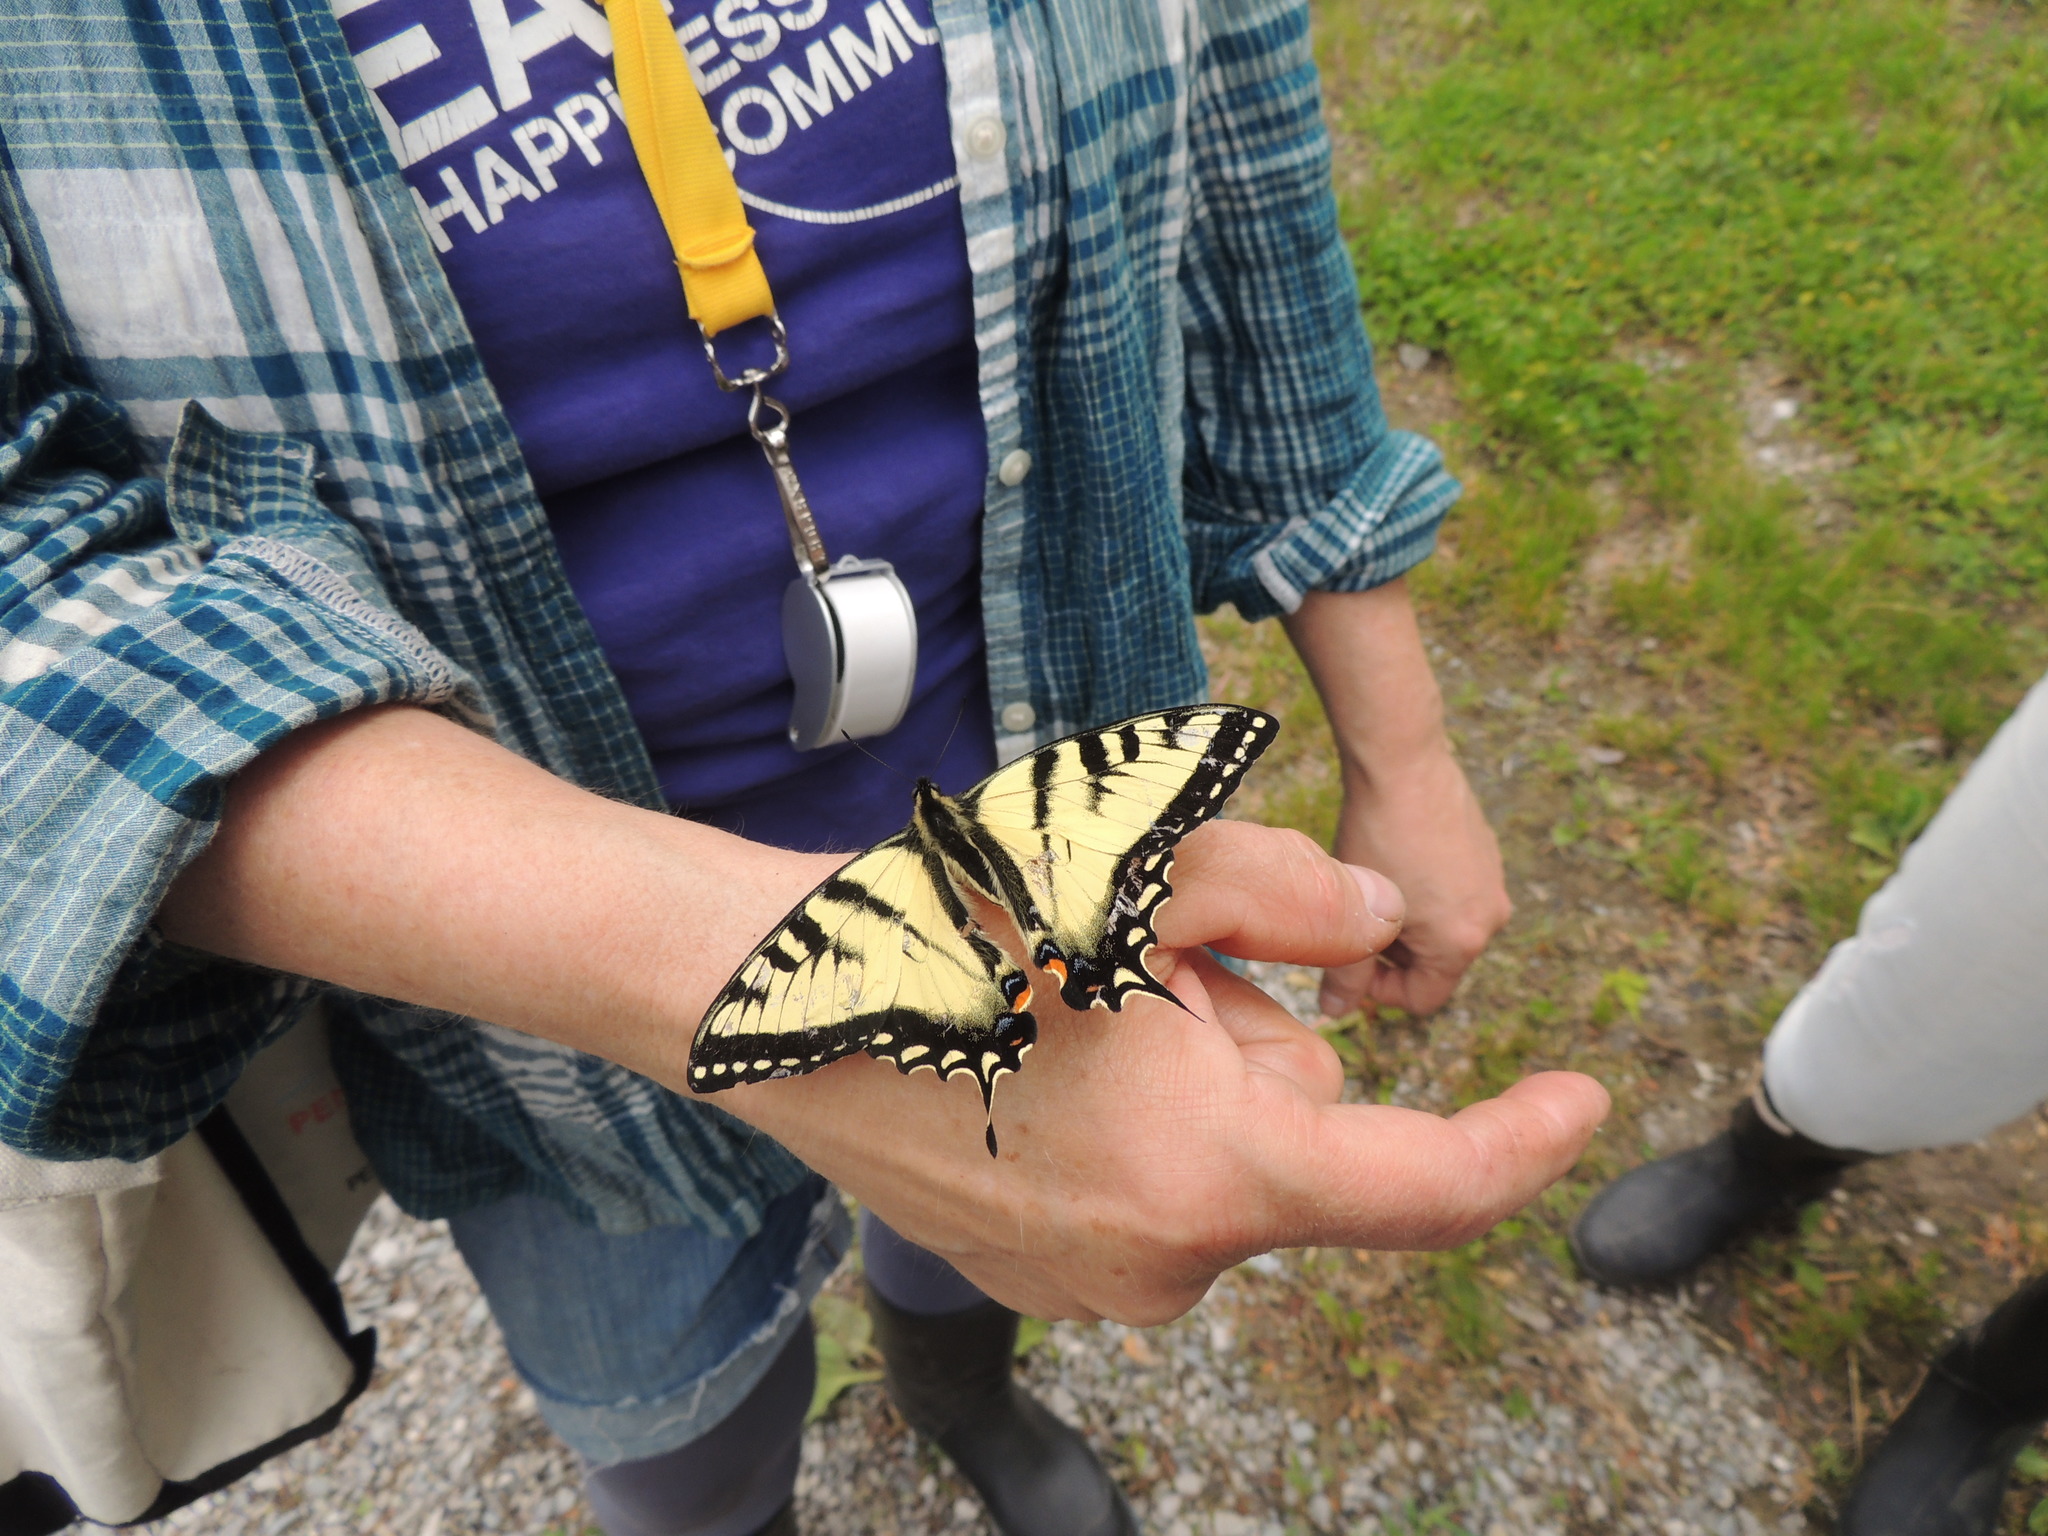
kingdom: Animalia
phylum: Arthropoda
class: Insecta
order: Lepidoptera
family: Papilionidae
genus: Papilio
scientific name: Papilio canadensis
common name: Canadian tiger swallowtail
